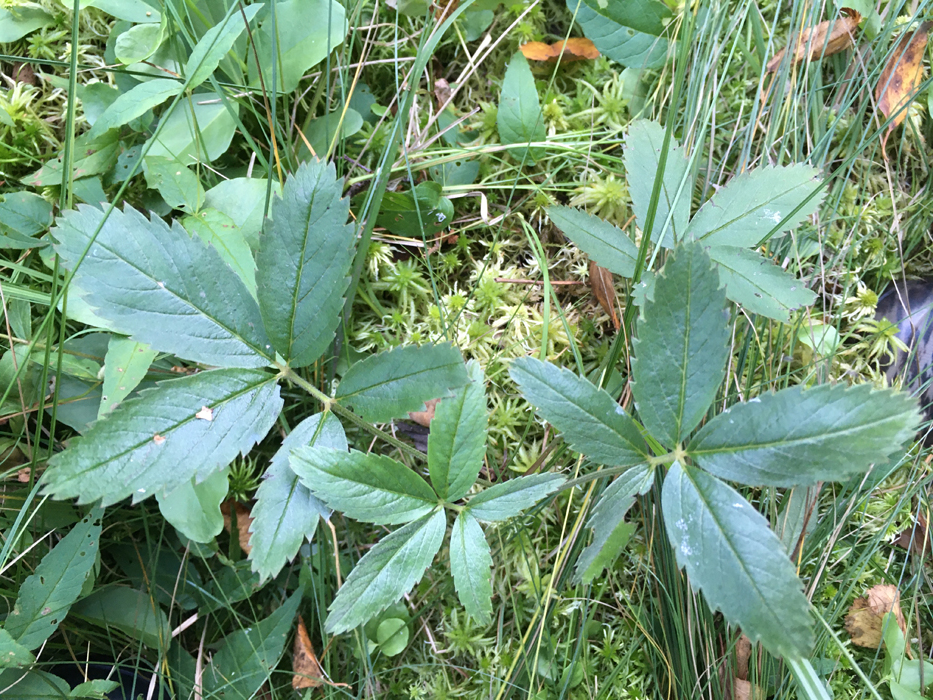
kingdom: Plantae
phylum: Tracheophyta
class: Magnoliopsida
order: Rosales
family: Rosaceae
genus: Comarum
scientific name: Comarum palustre
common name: Marsh cinquefoil
